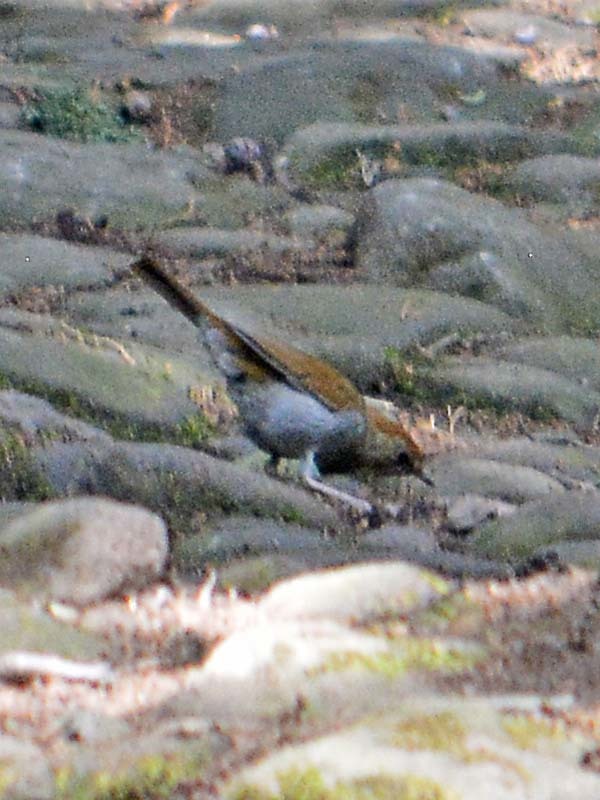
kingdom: Animalia
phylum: Chordata
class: Aves
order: Passeriformes
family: Turdidae
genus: Catharus
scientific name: Catharus occidentalis
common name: Russet nightingale-thrush
